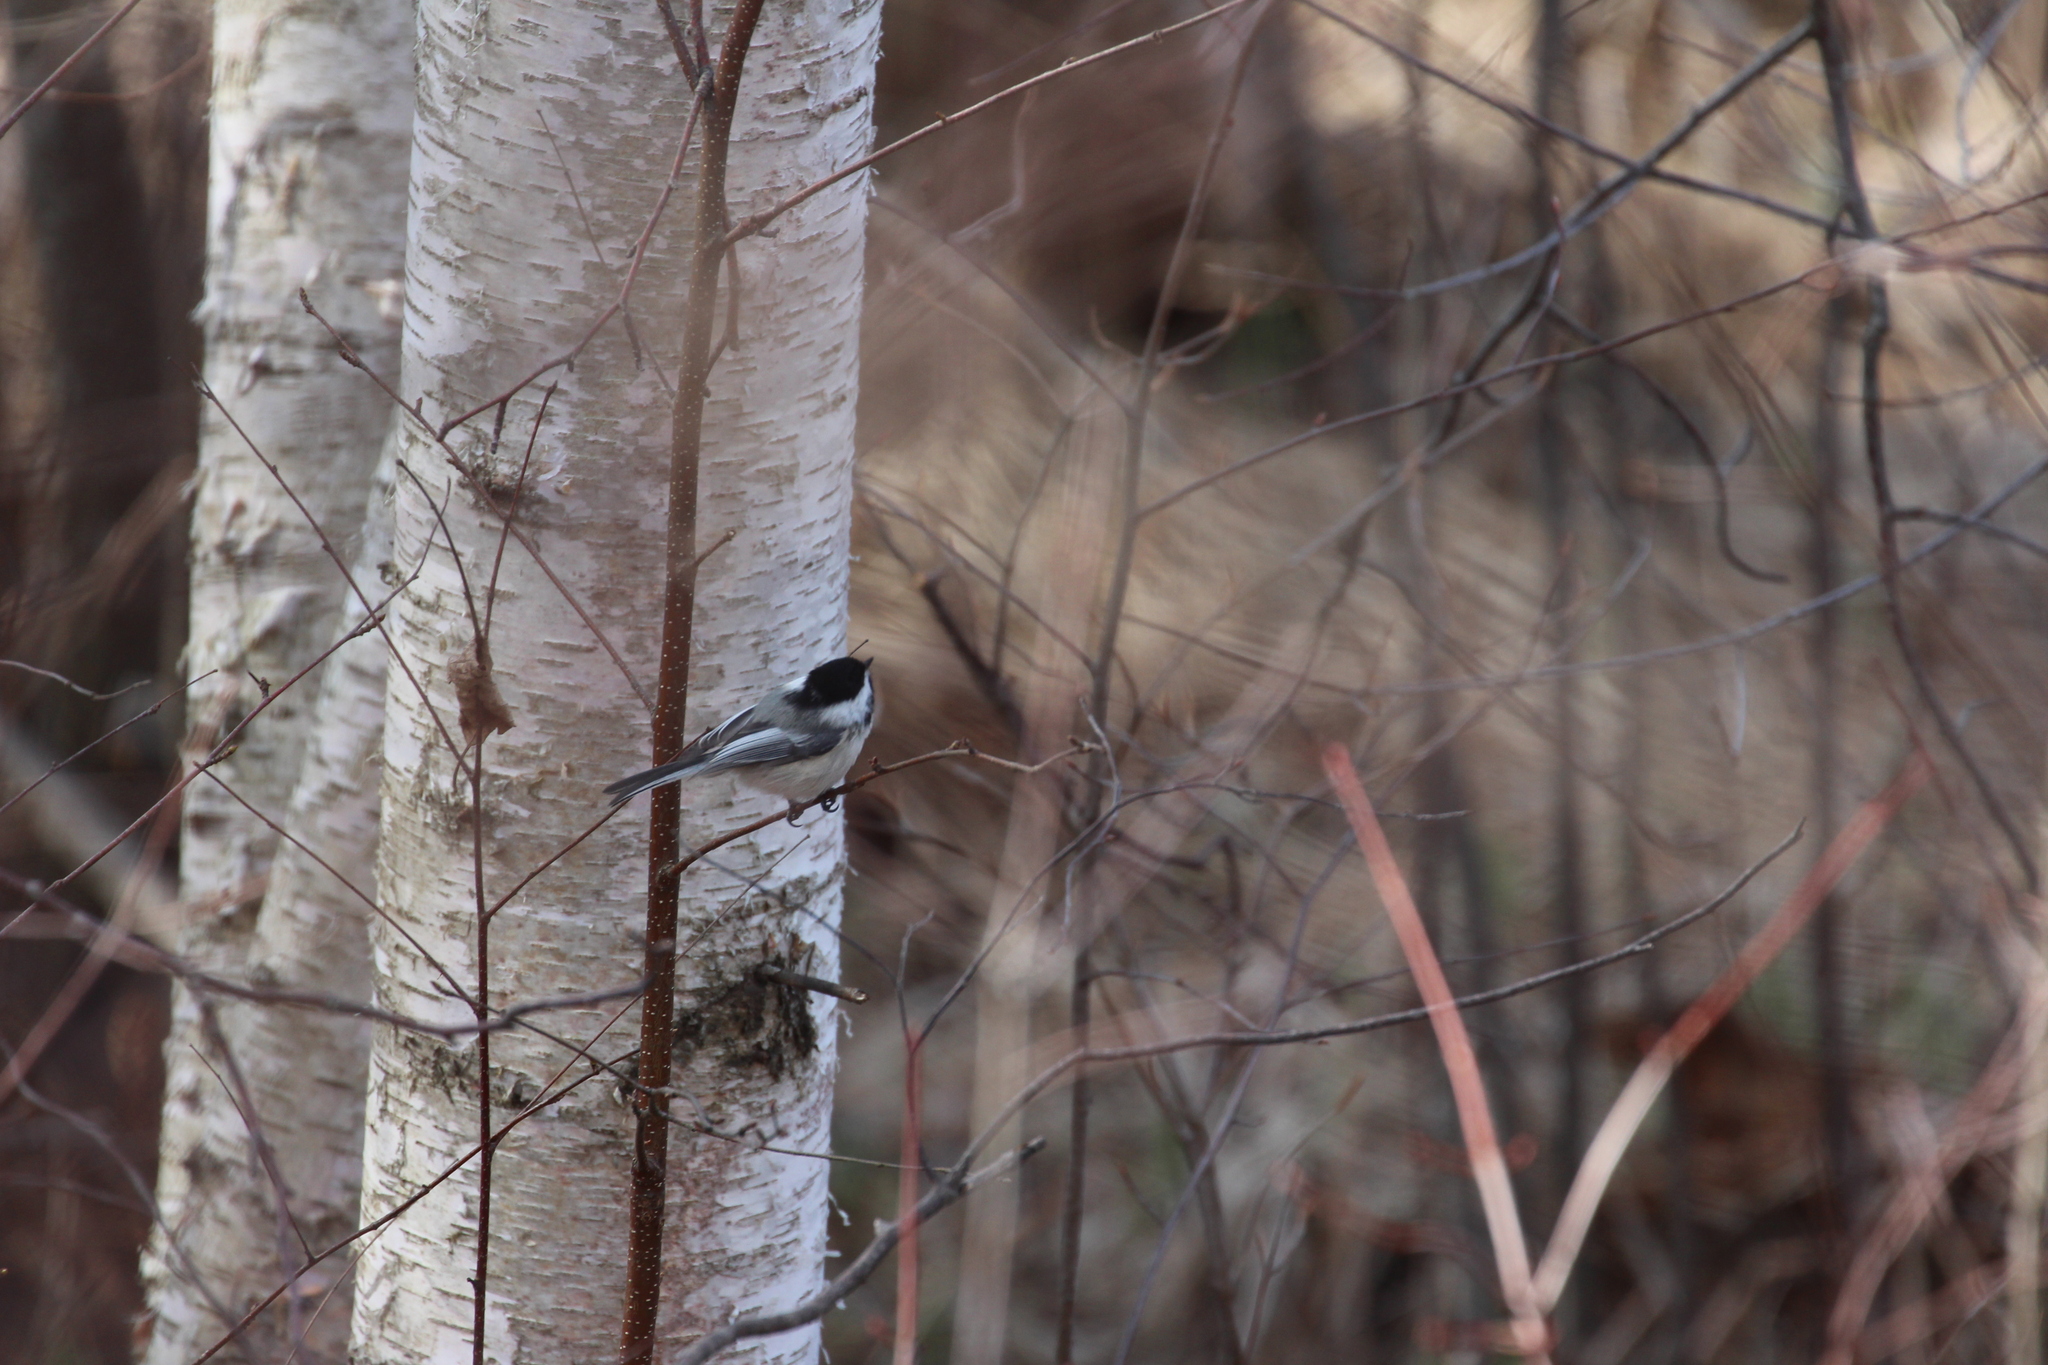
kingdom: Animalia
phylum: Chordata
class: Aves
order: Passeriformes
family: Paridae
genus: Poecile
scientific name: Poecile atricapillus
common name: Black-capped chickadee
